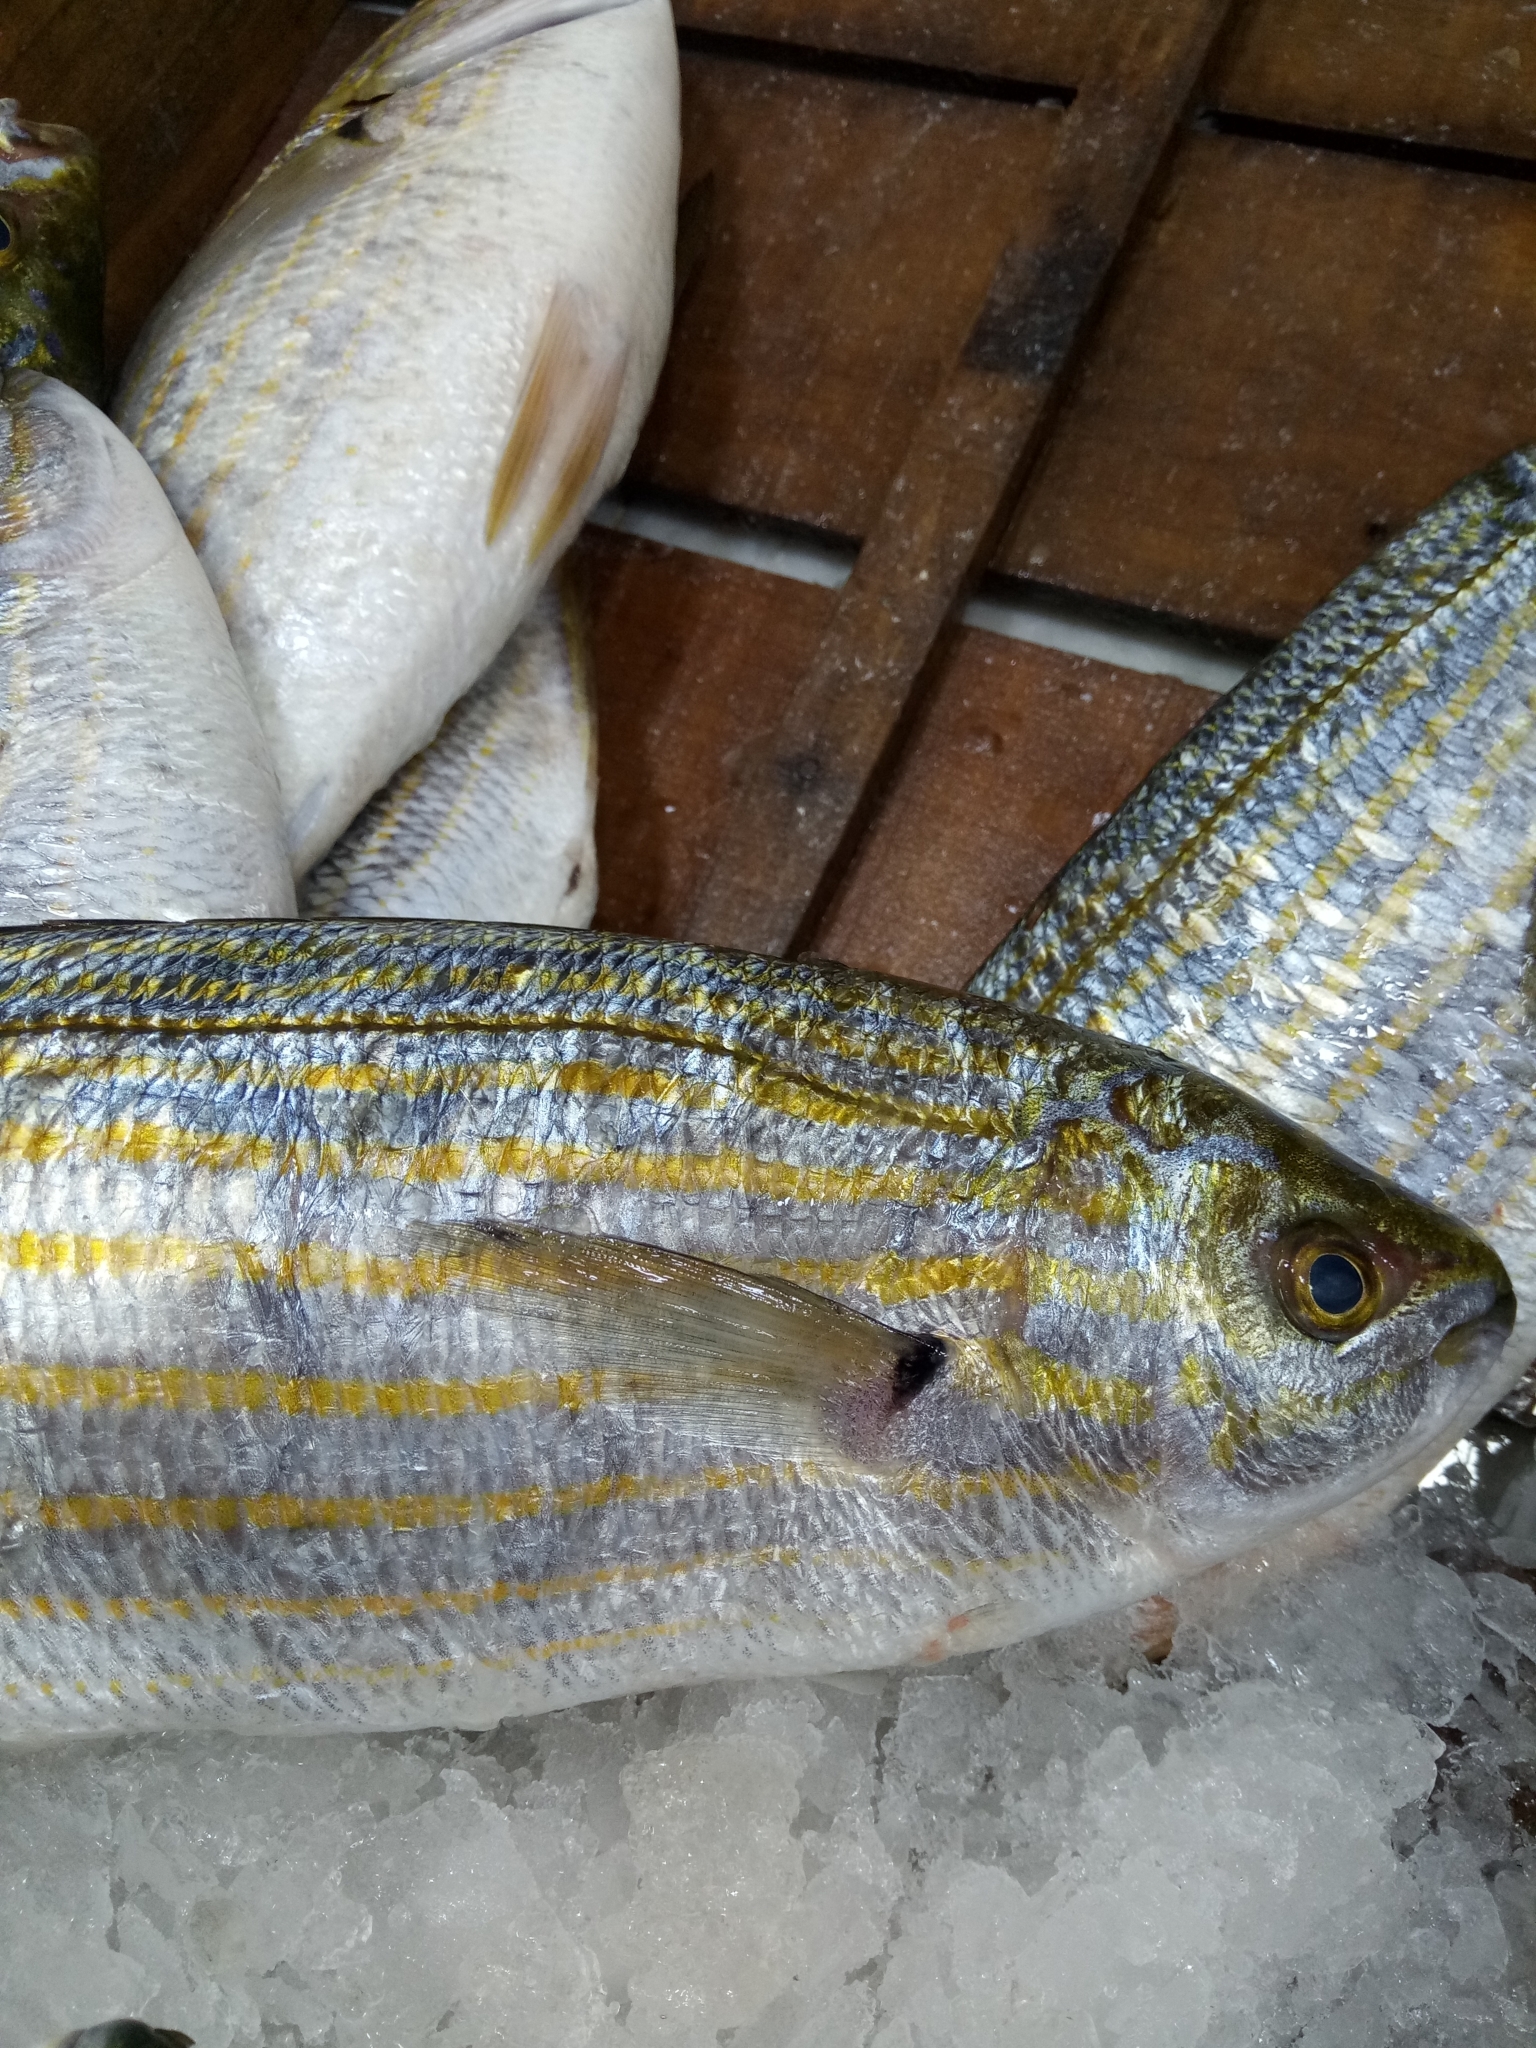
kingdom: Animalia
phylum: Chordata
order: Perciformes
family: Sparidae
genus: Sarpa
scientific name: Sarpa salpa
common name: Salema
